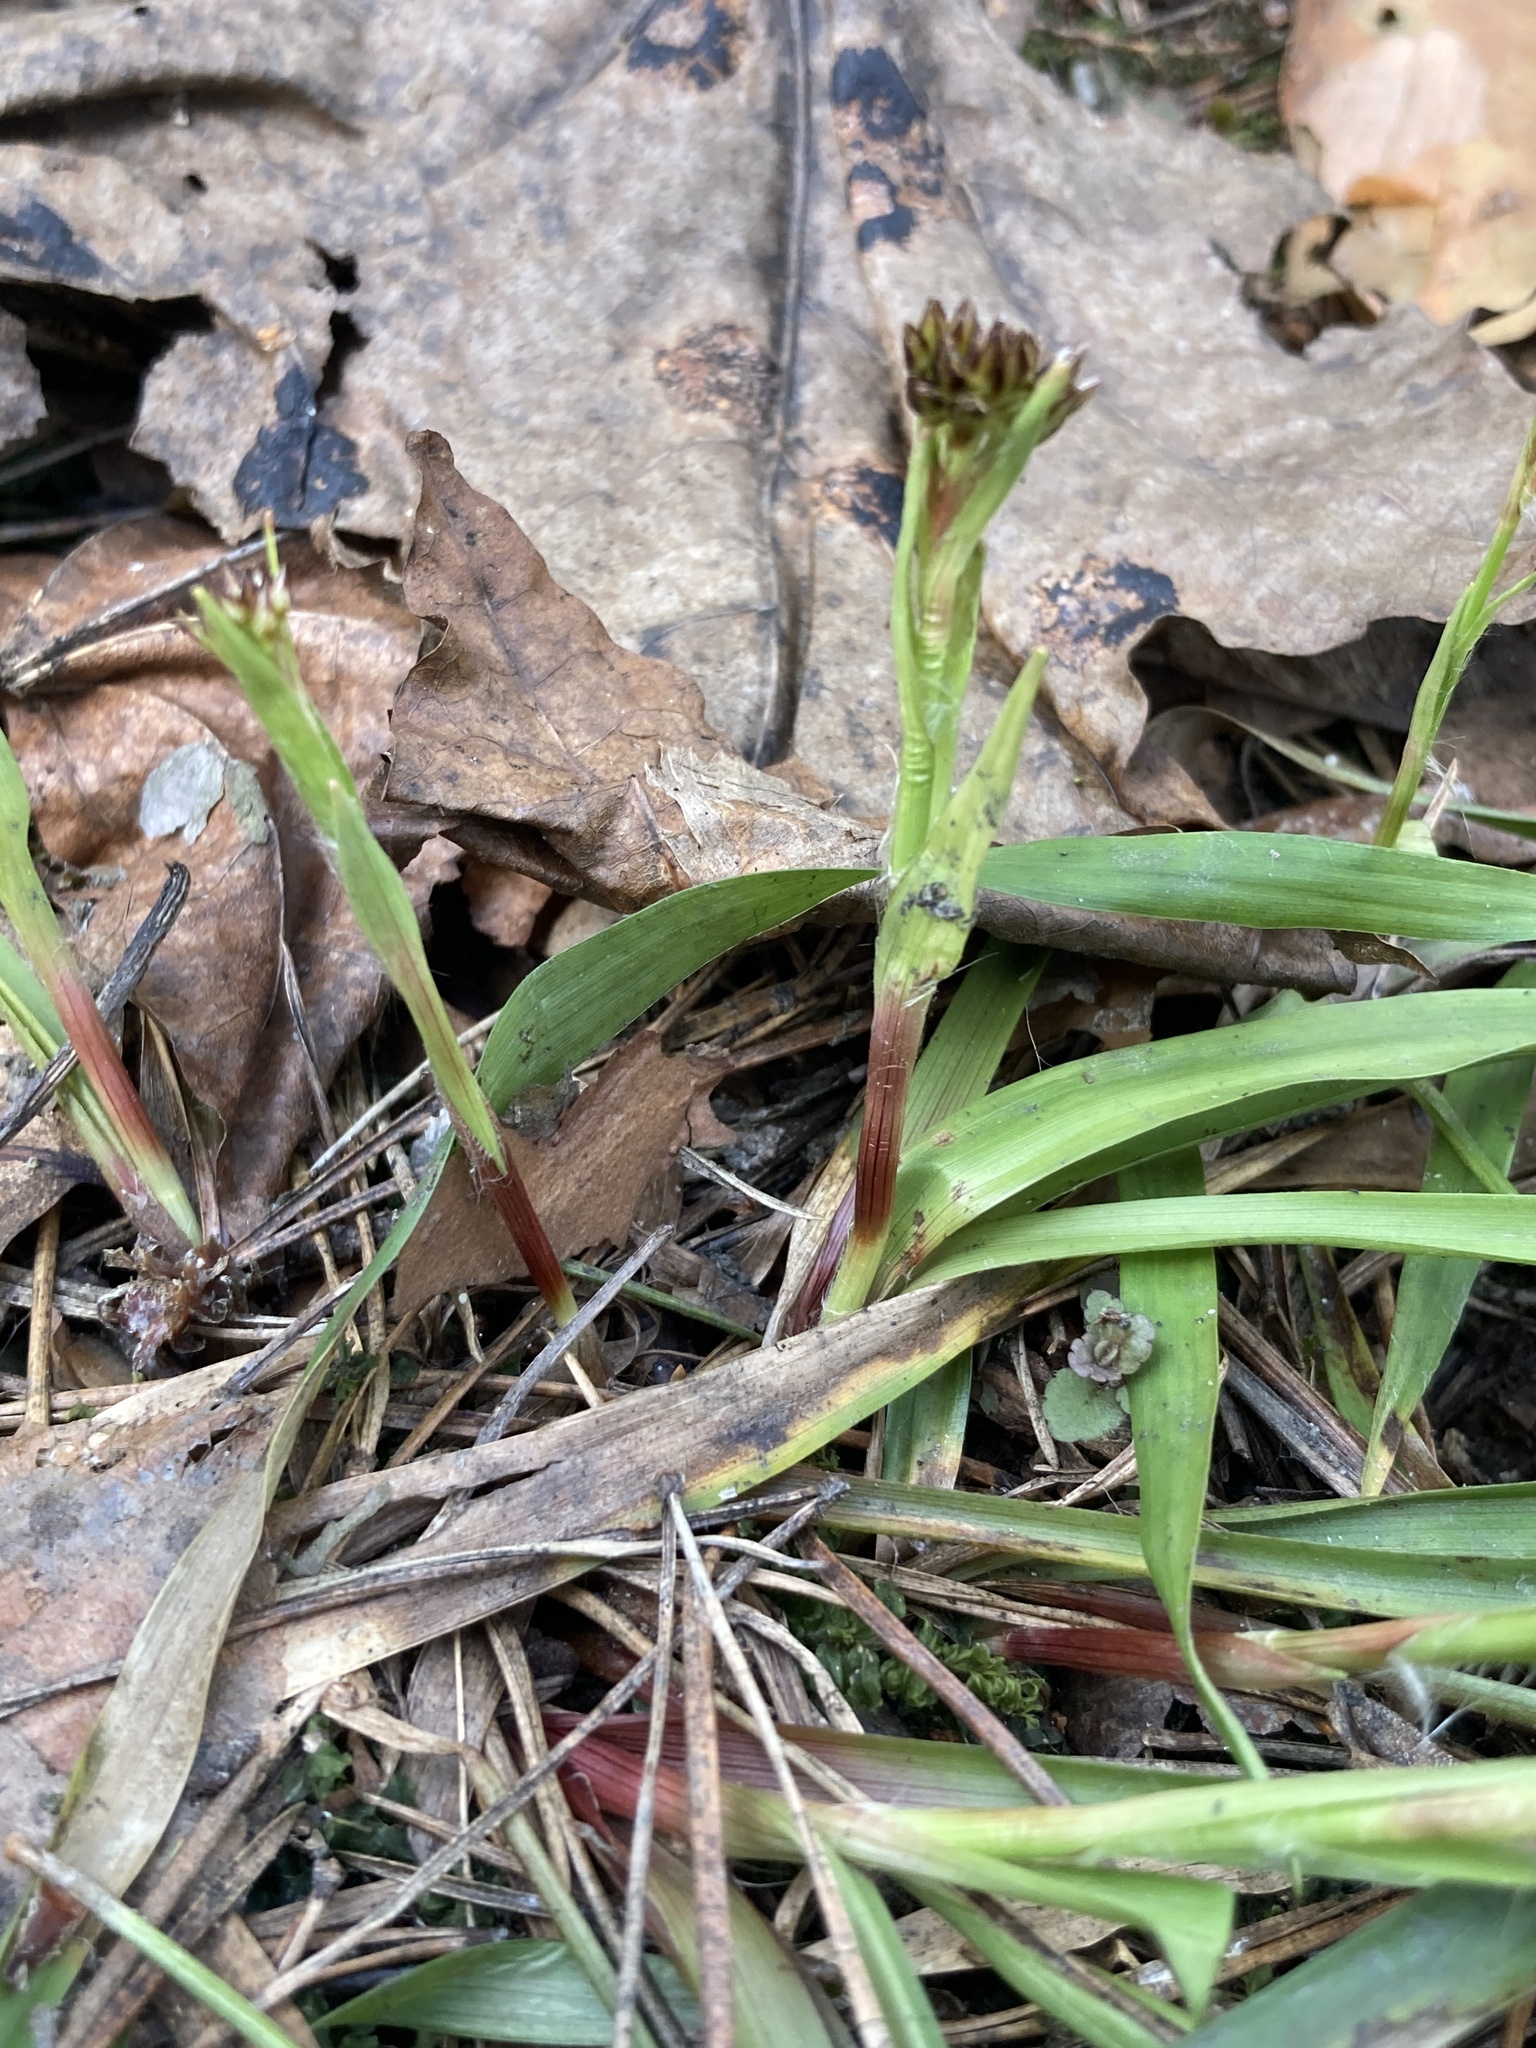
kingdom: Plantae
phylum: Tracheophyta
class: Liliopsida
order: Poales
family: Juncaceae
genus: Luzula
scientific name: Luzula pilosa
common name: Hairy wood-rush
